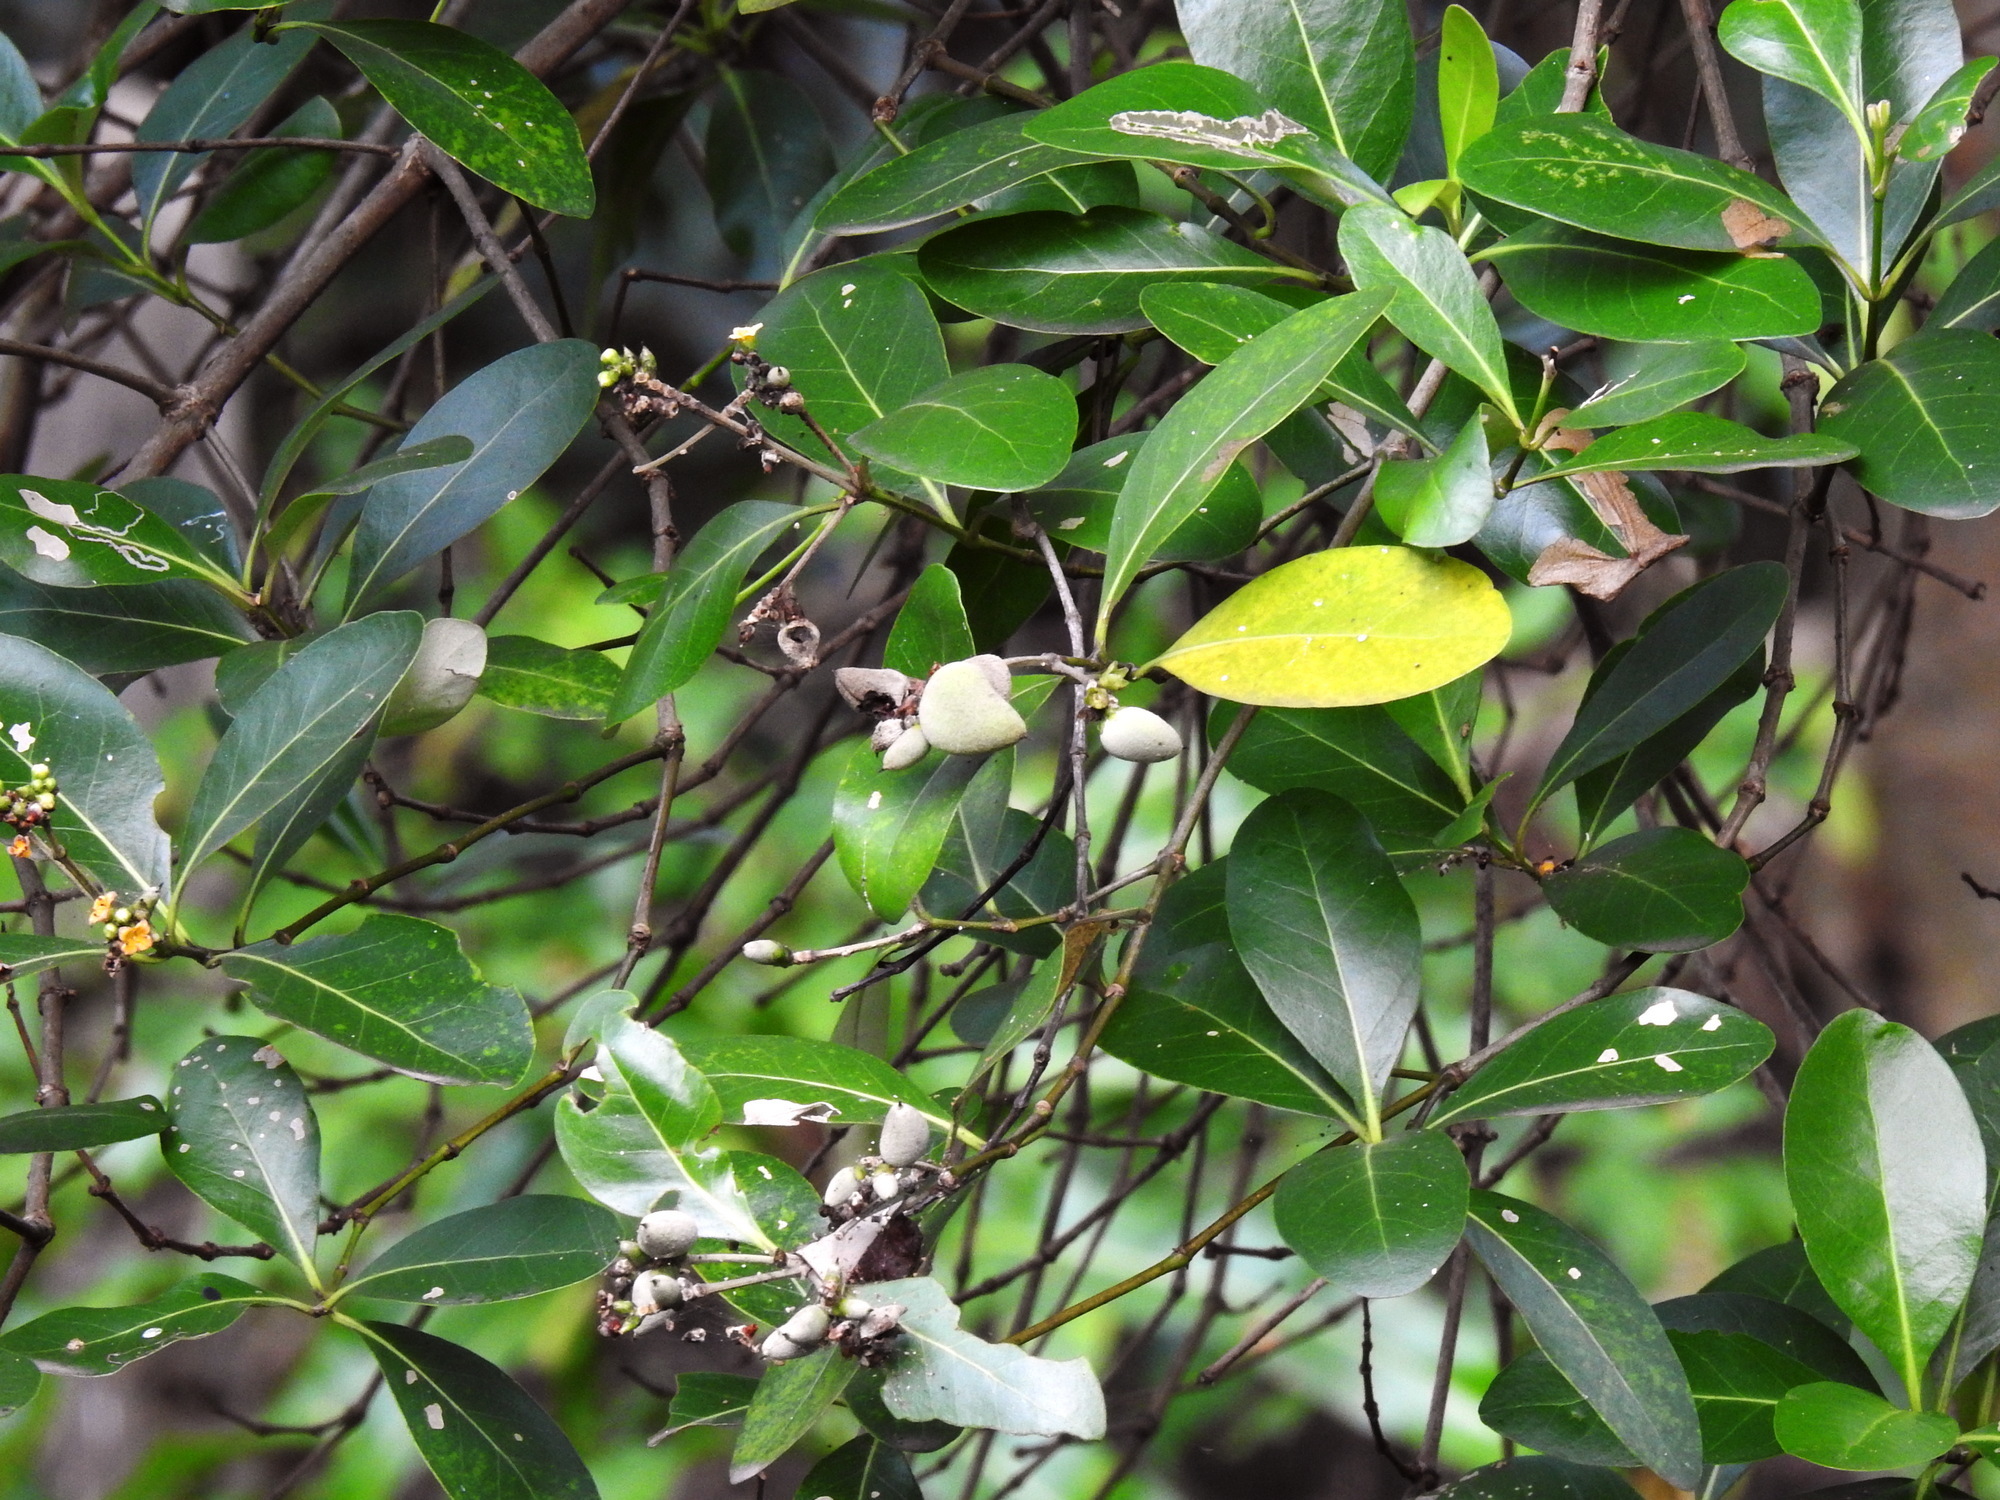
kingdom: Plantae
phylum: Tracheophyta
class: Magnoliopsida
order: Lamiales
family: Acanthaceae
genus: Avicennia
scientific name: Avicennia marina
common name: Gray mangrove
